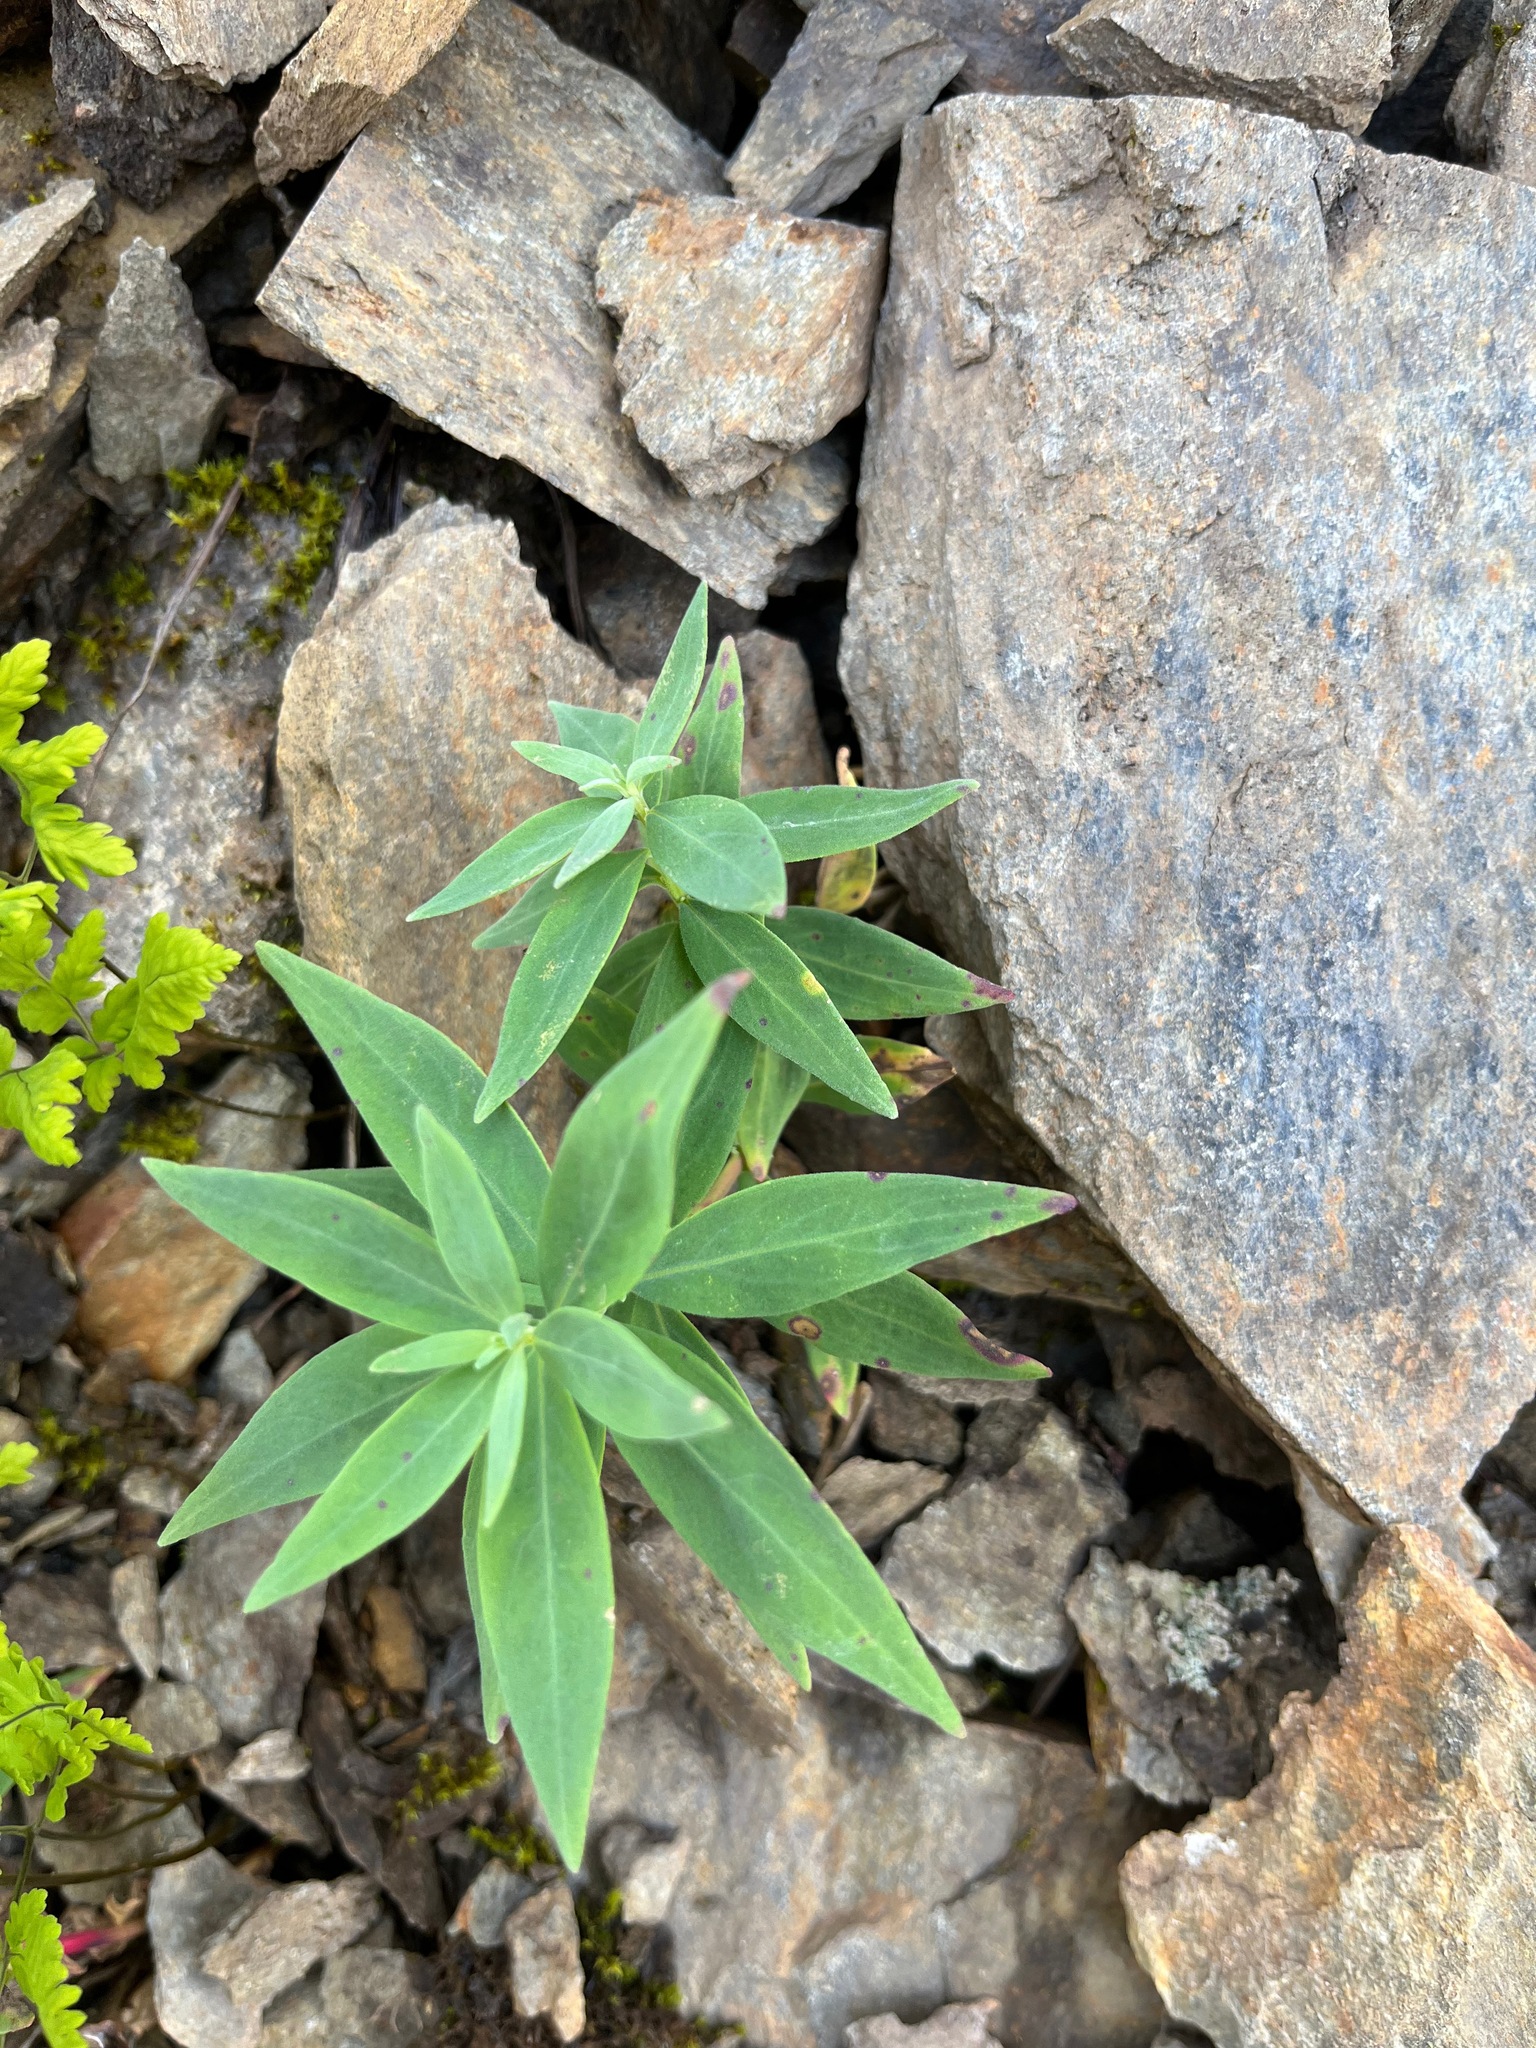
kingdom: Plantae
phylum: Tracheophyta
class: Magnoliopsida
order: Myrtales
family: Onagraceae
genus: Chamaenerion
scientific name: Chamaenerion latifolium
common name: Dwarf fireweed
